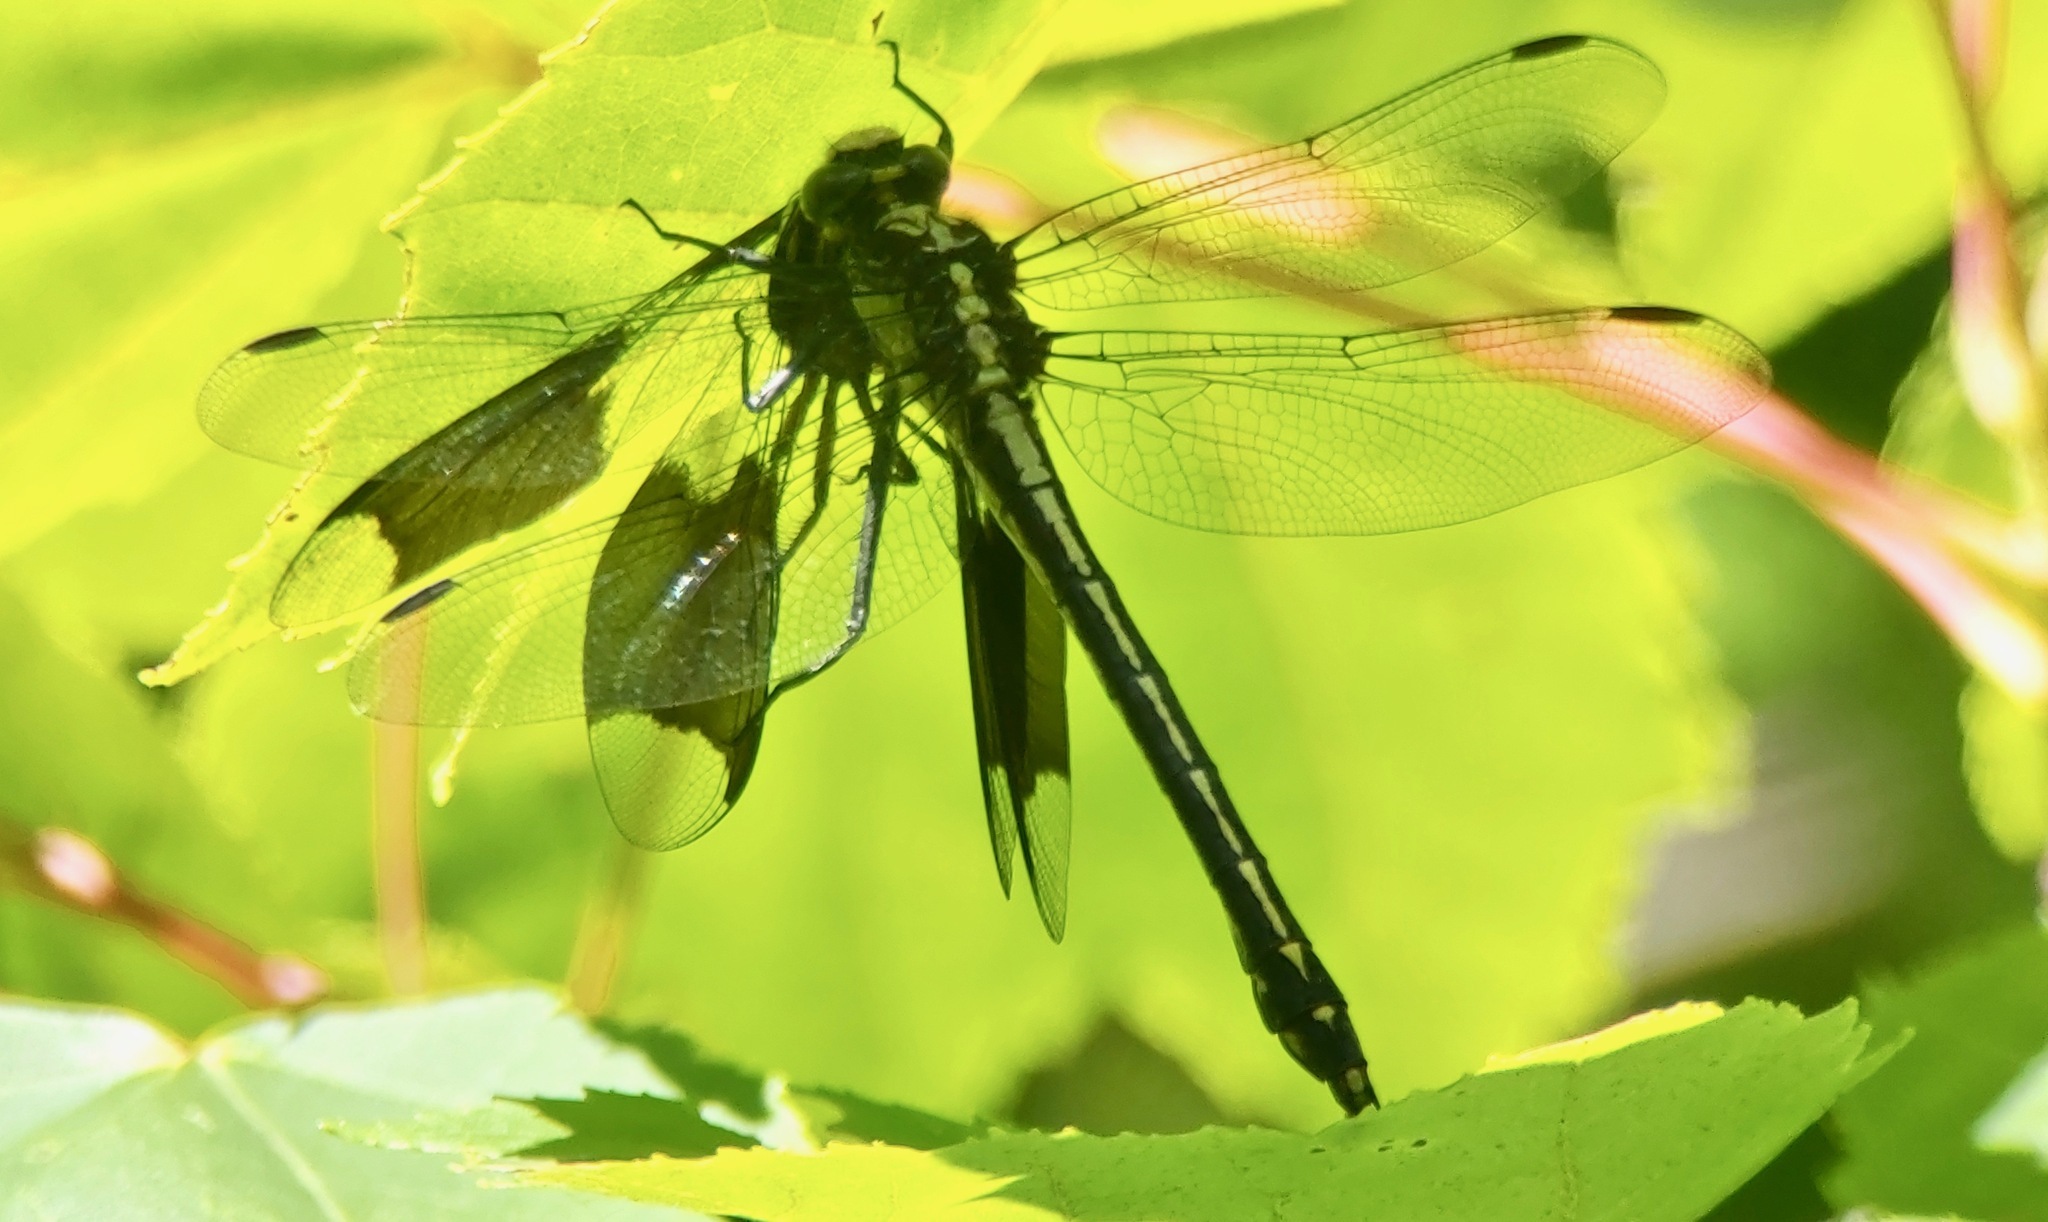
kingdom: Animalia
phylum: Arthropoda
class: Insecta
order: Odonata
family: Gomphidae
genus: Dromogomphus
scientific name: Dromogomphus spinosus
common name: Black-shouldered spinyleg
